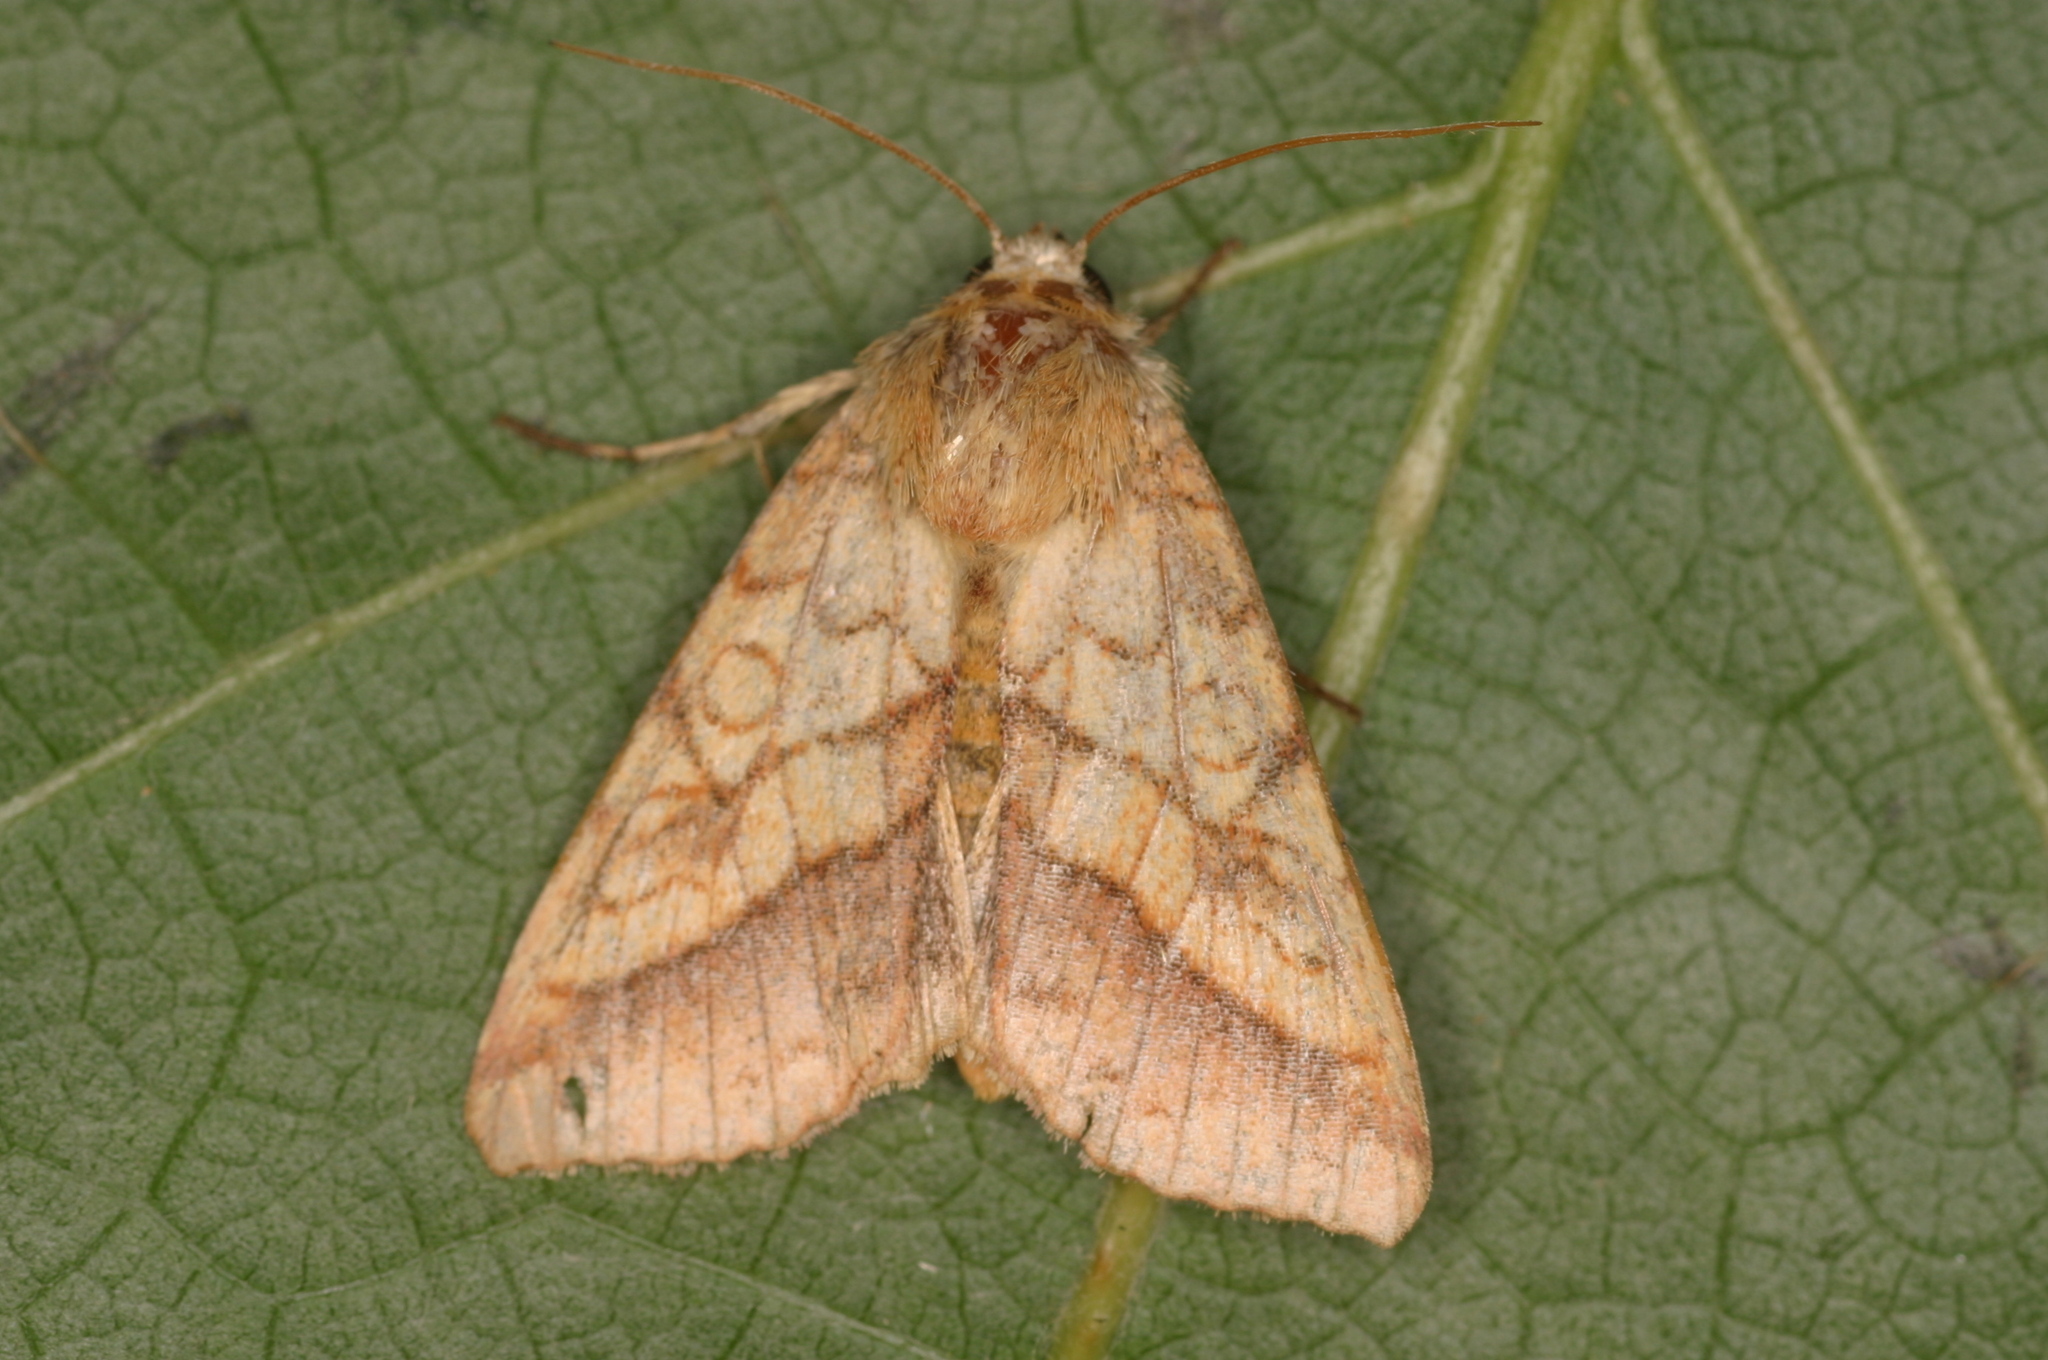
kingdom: Animalia
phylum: Arthropoda
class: Insecta
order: Lepidoptera
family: Noctuidae
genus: Pyrrhia
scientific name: Pyrrhia umbra
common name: Bordered sallow
